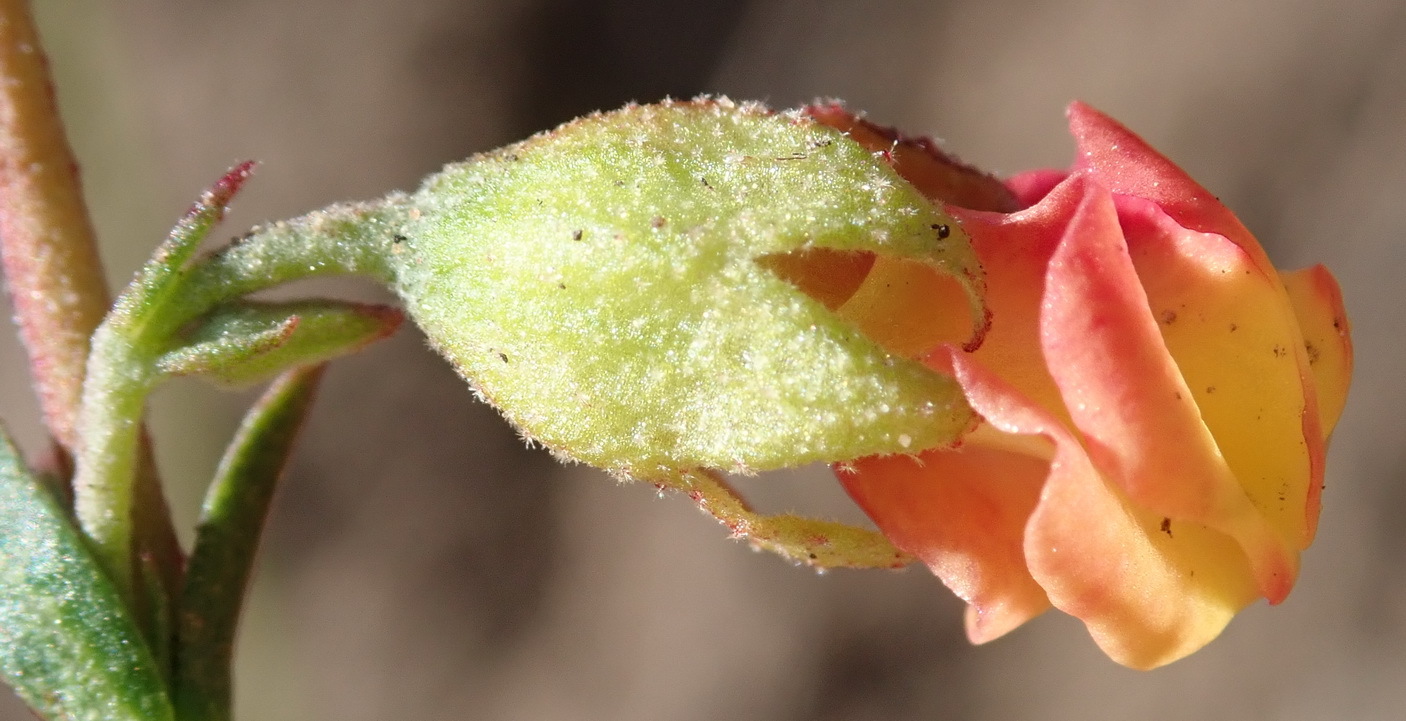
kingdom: Plantae
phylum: Tracheophyta
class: Magnoliopsida
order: Malvales
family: Malvaceae
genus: Hermannia
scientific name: Hermannia flammula
